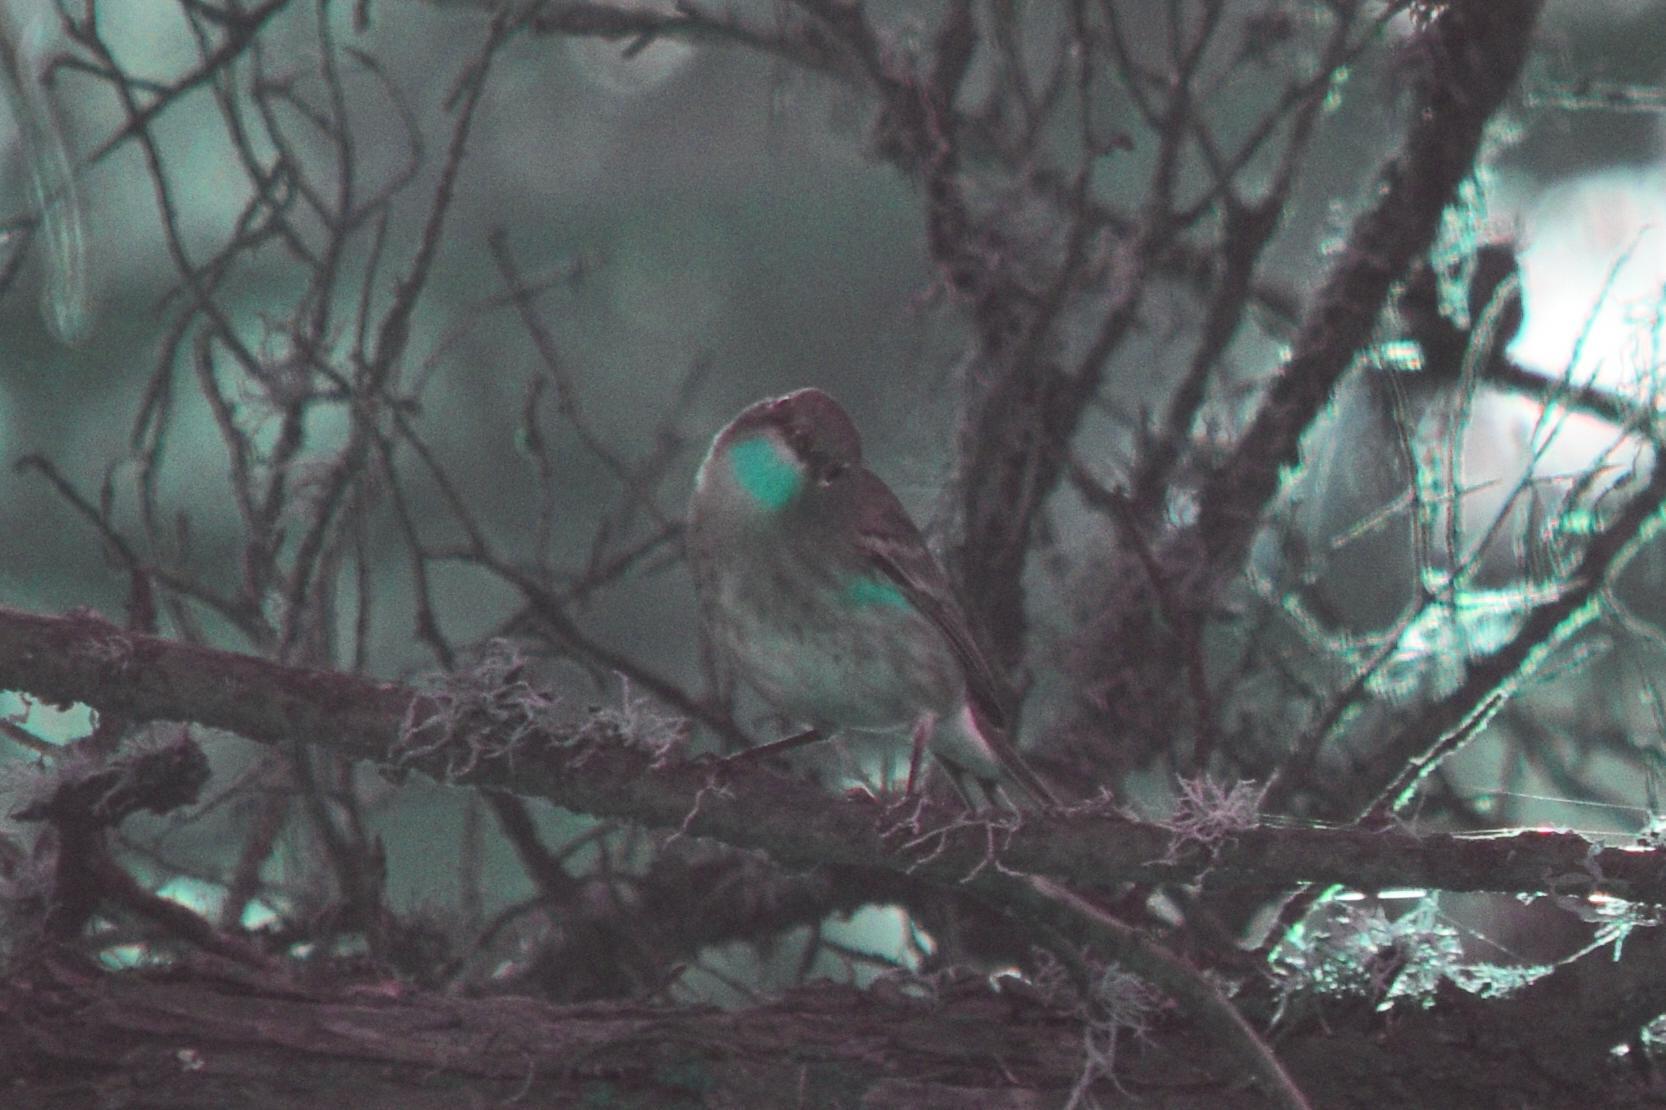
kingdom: Animalia
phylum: Chordata
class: Aves
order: Passeriformes
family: Parulidae
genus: Setophaga
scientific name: Setophaga coronata
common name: Myrtle warbler
